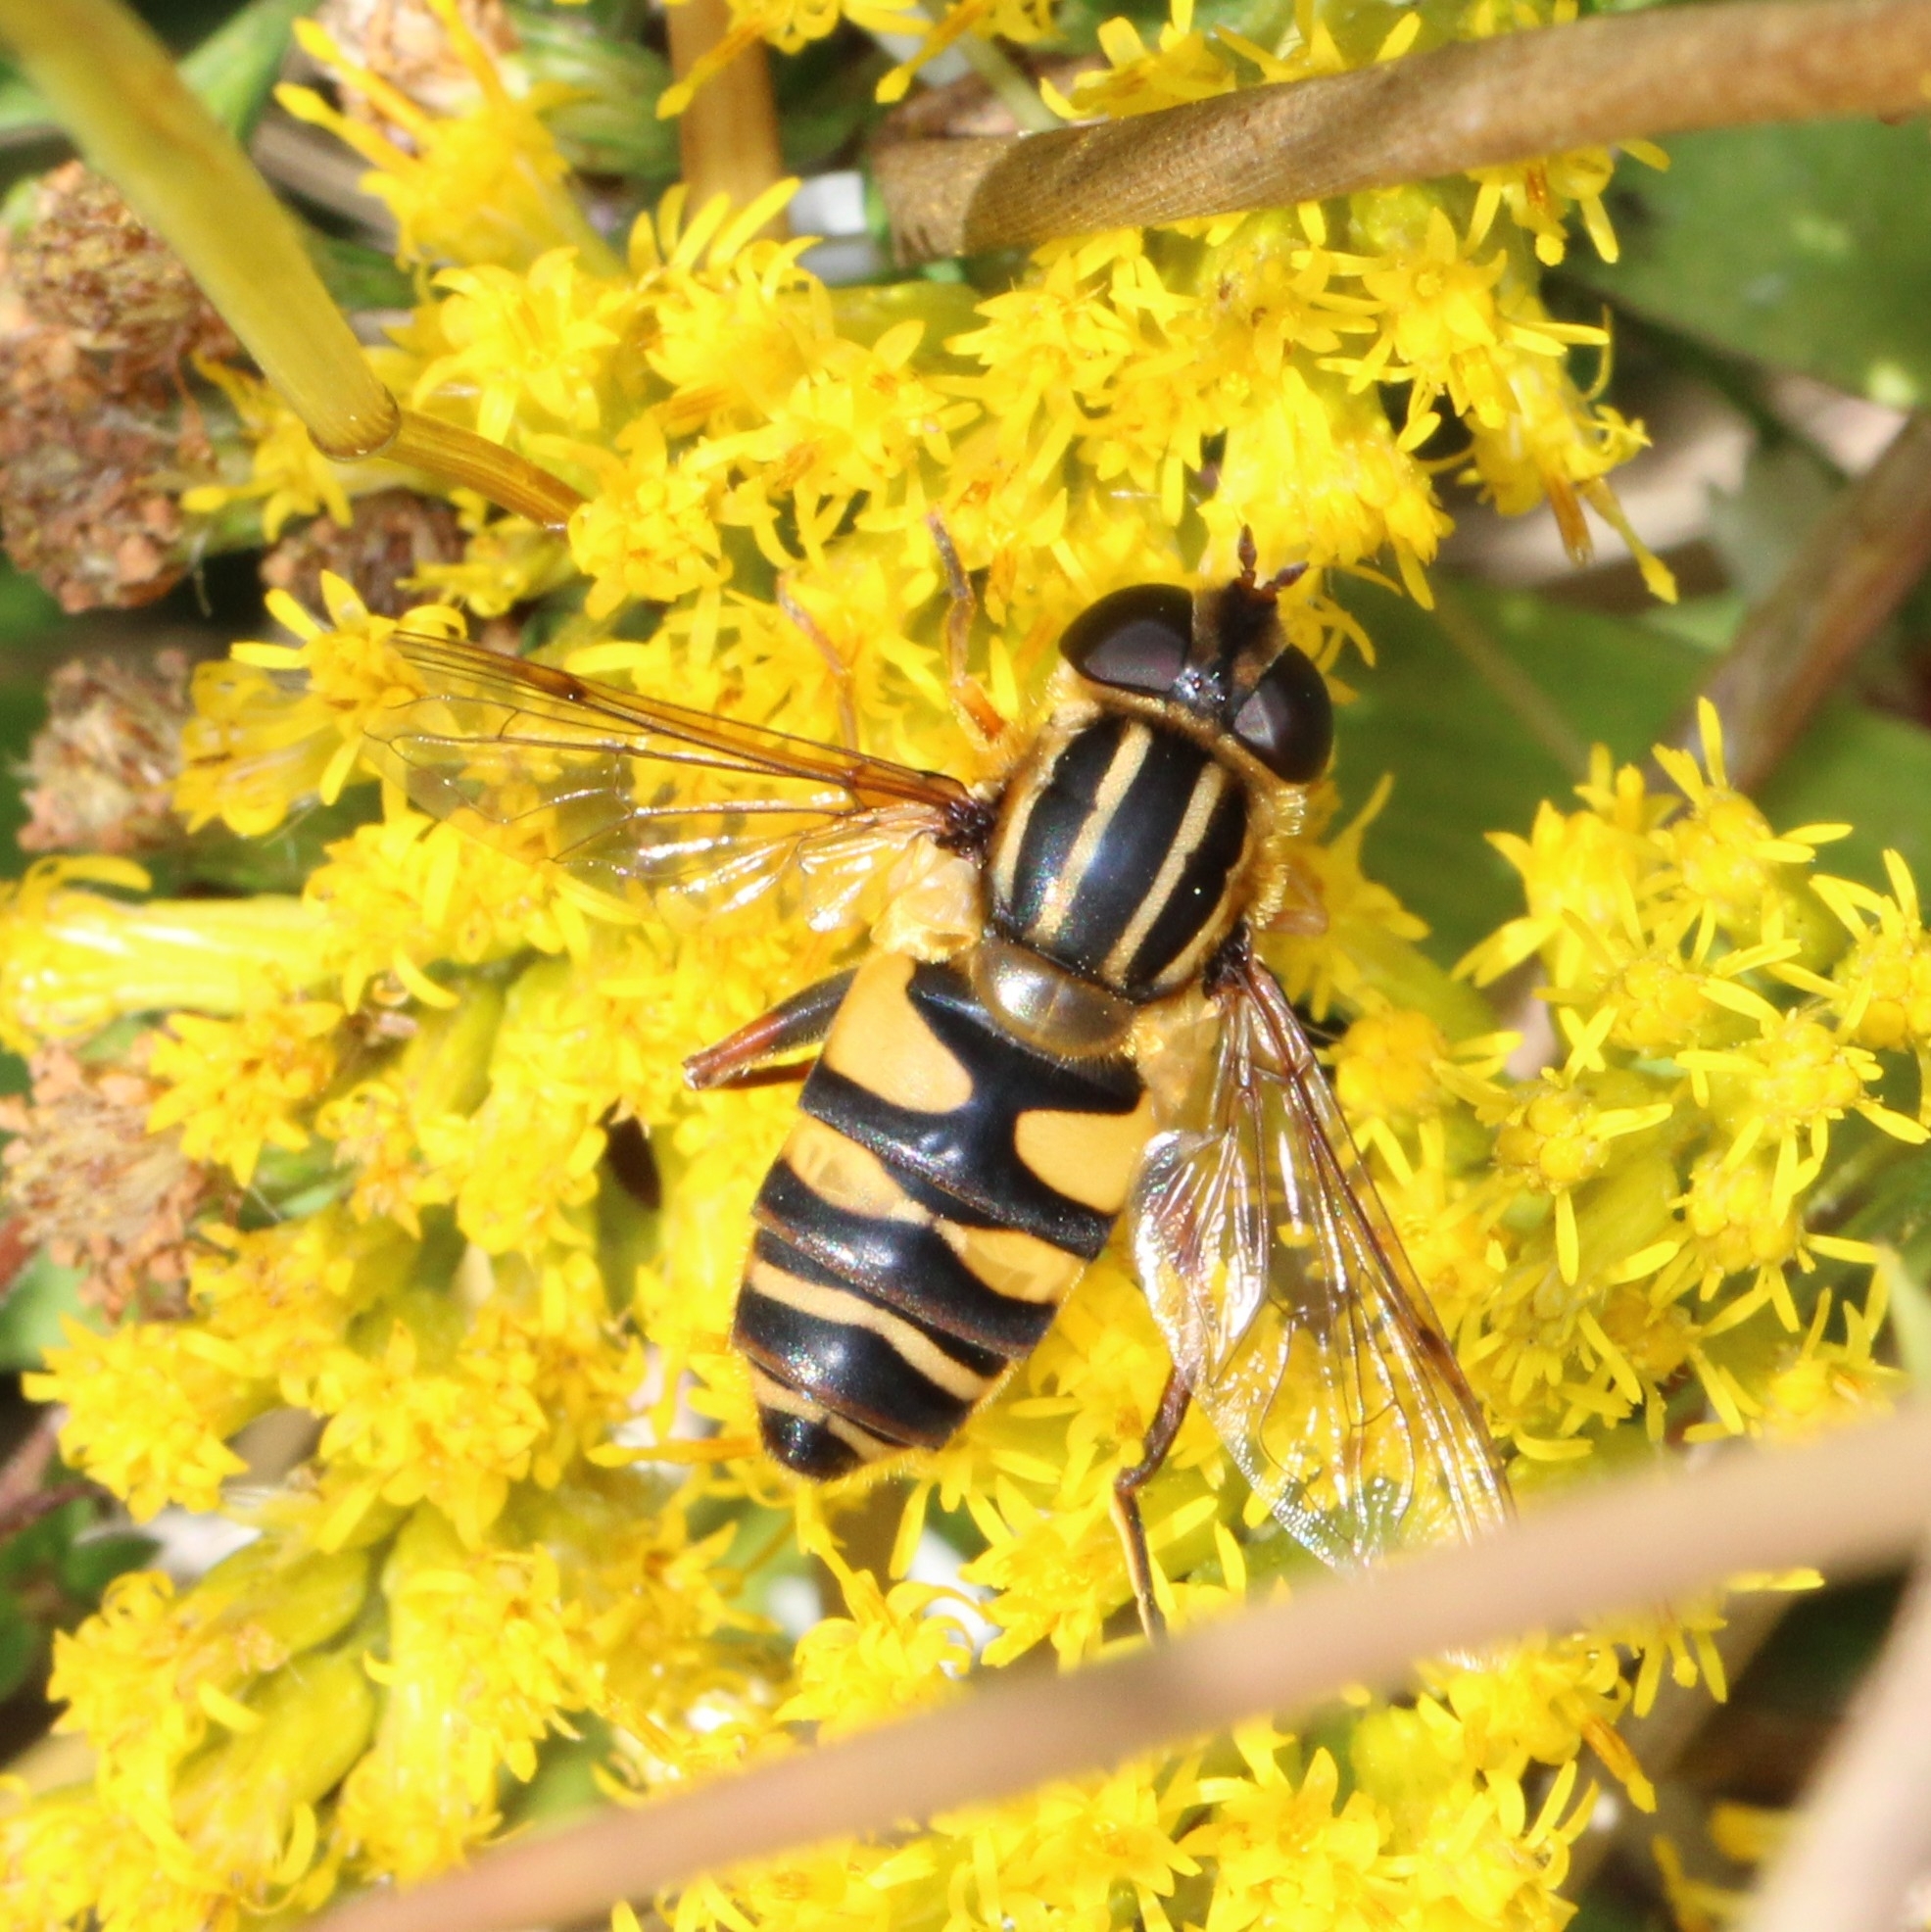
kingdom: Animalia
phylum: Arthropoda
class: Insecta
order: Diptera
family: Syrphidae
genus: Helophilus
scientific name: Helophilus fasciatus
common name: Narrow-headed marsh fly
